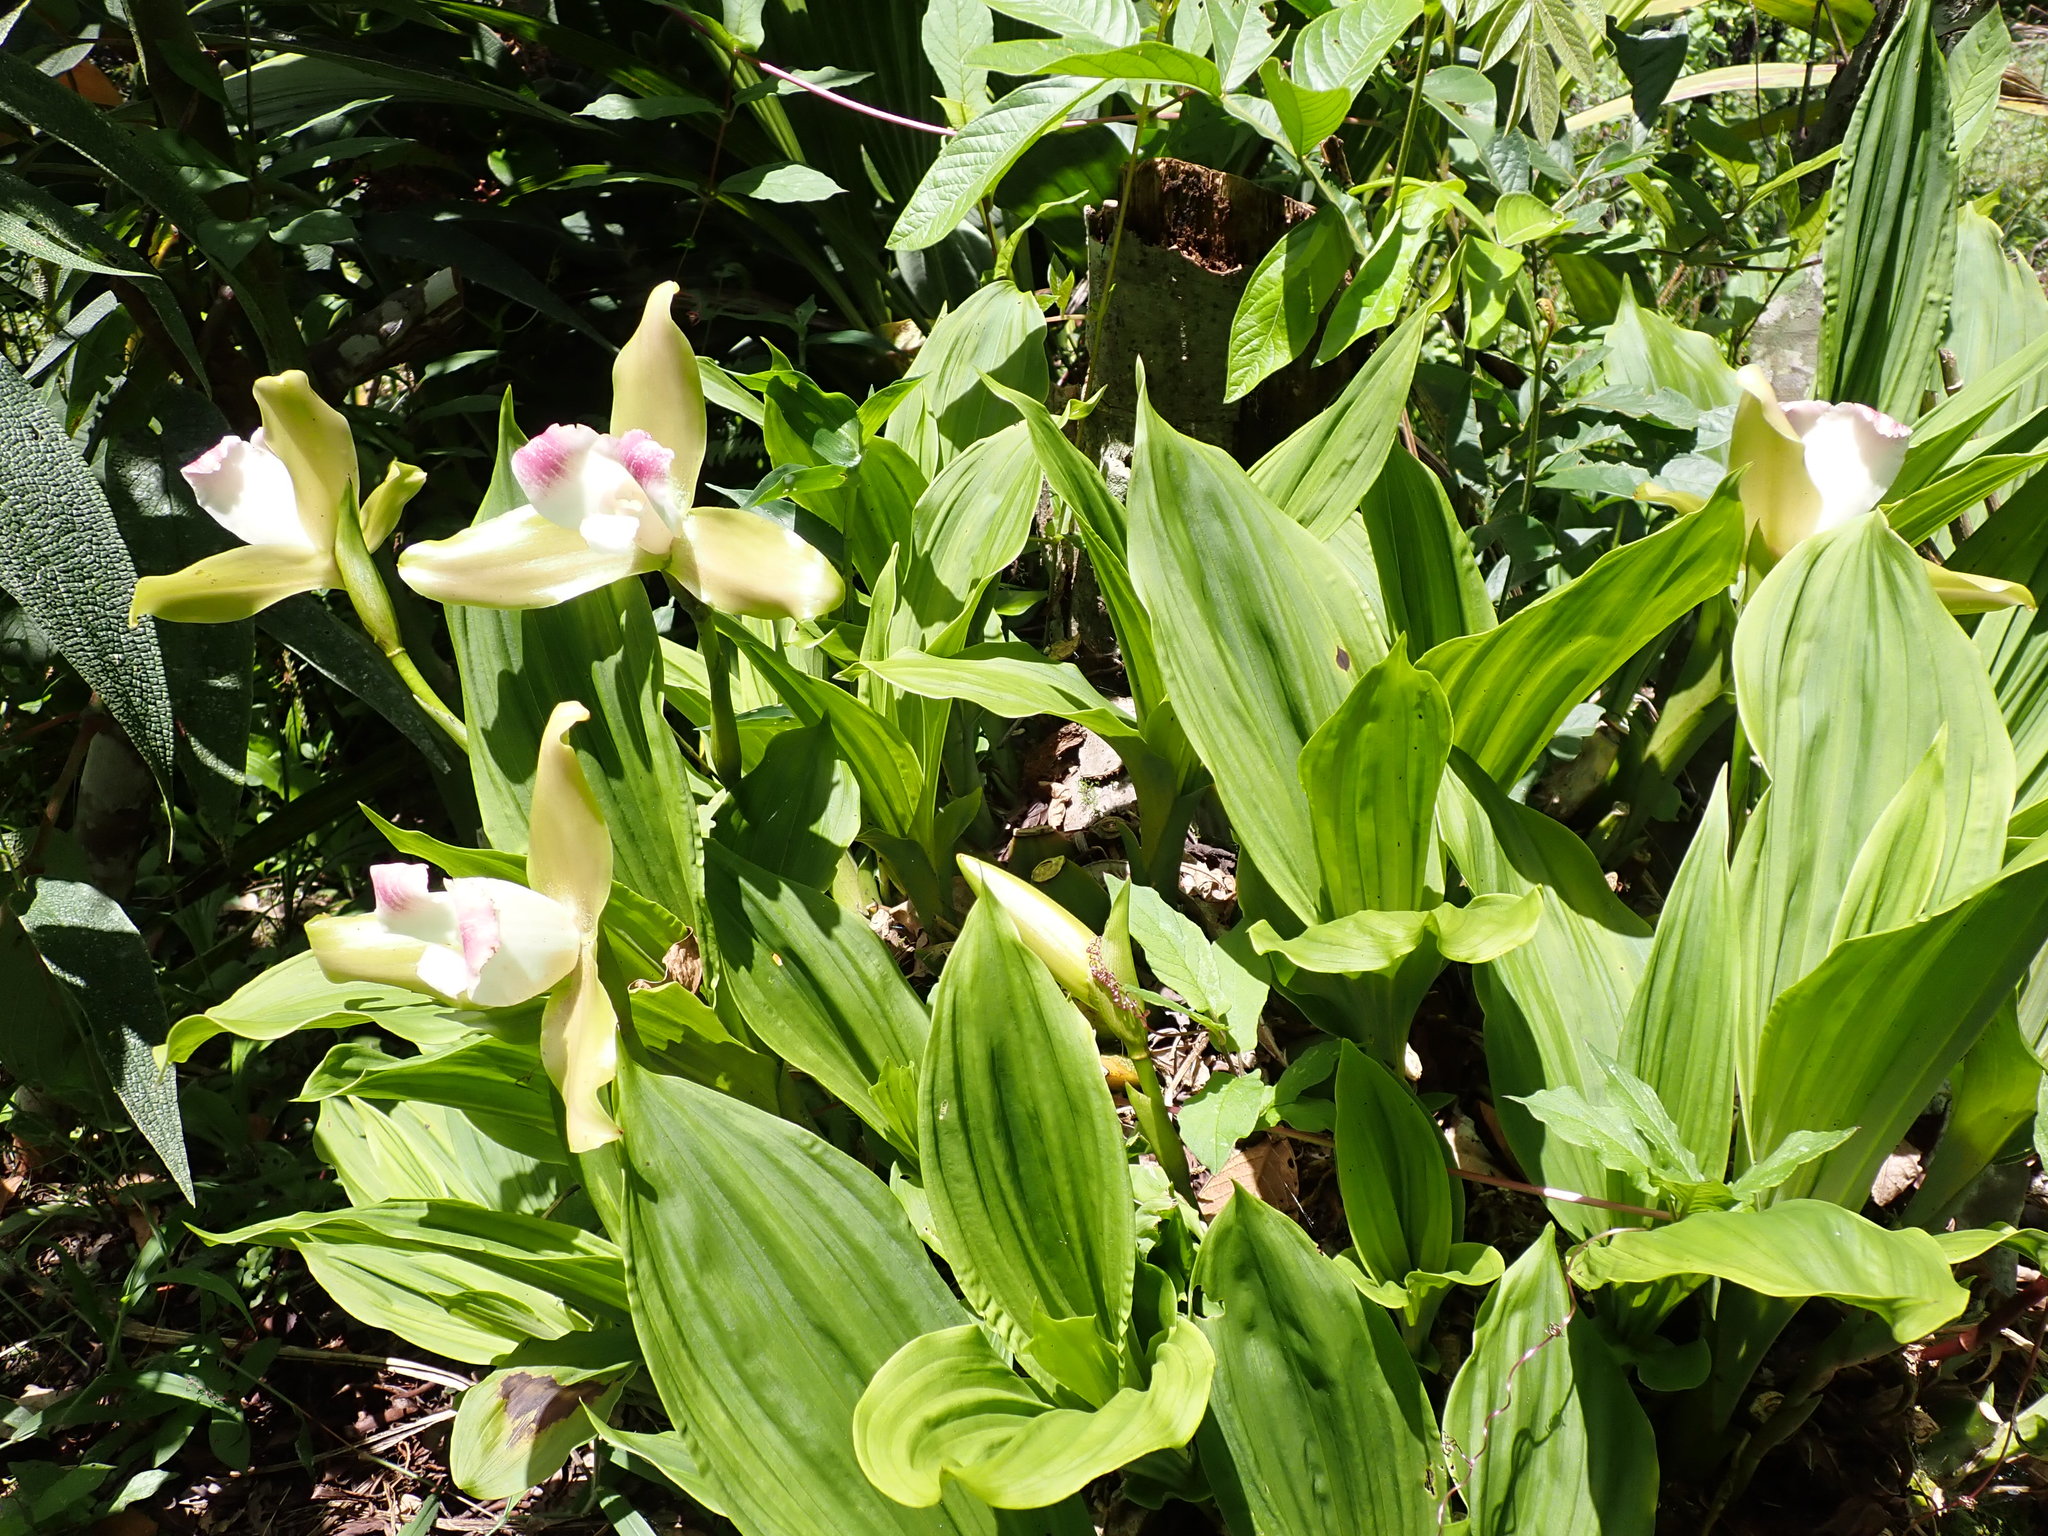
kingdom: Plantae
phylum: Tracheophyta
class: Liliopsida
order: Asparagales
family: Orchidaceae
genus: Lycaste
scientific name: Lycaste macrophylla
